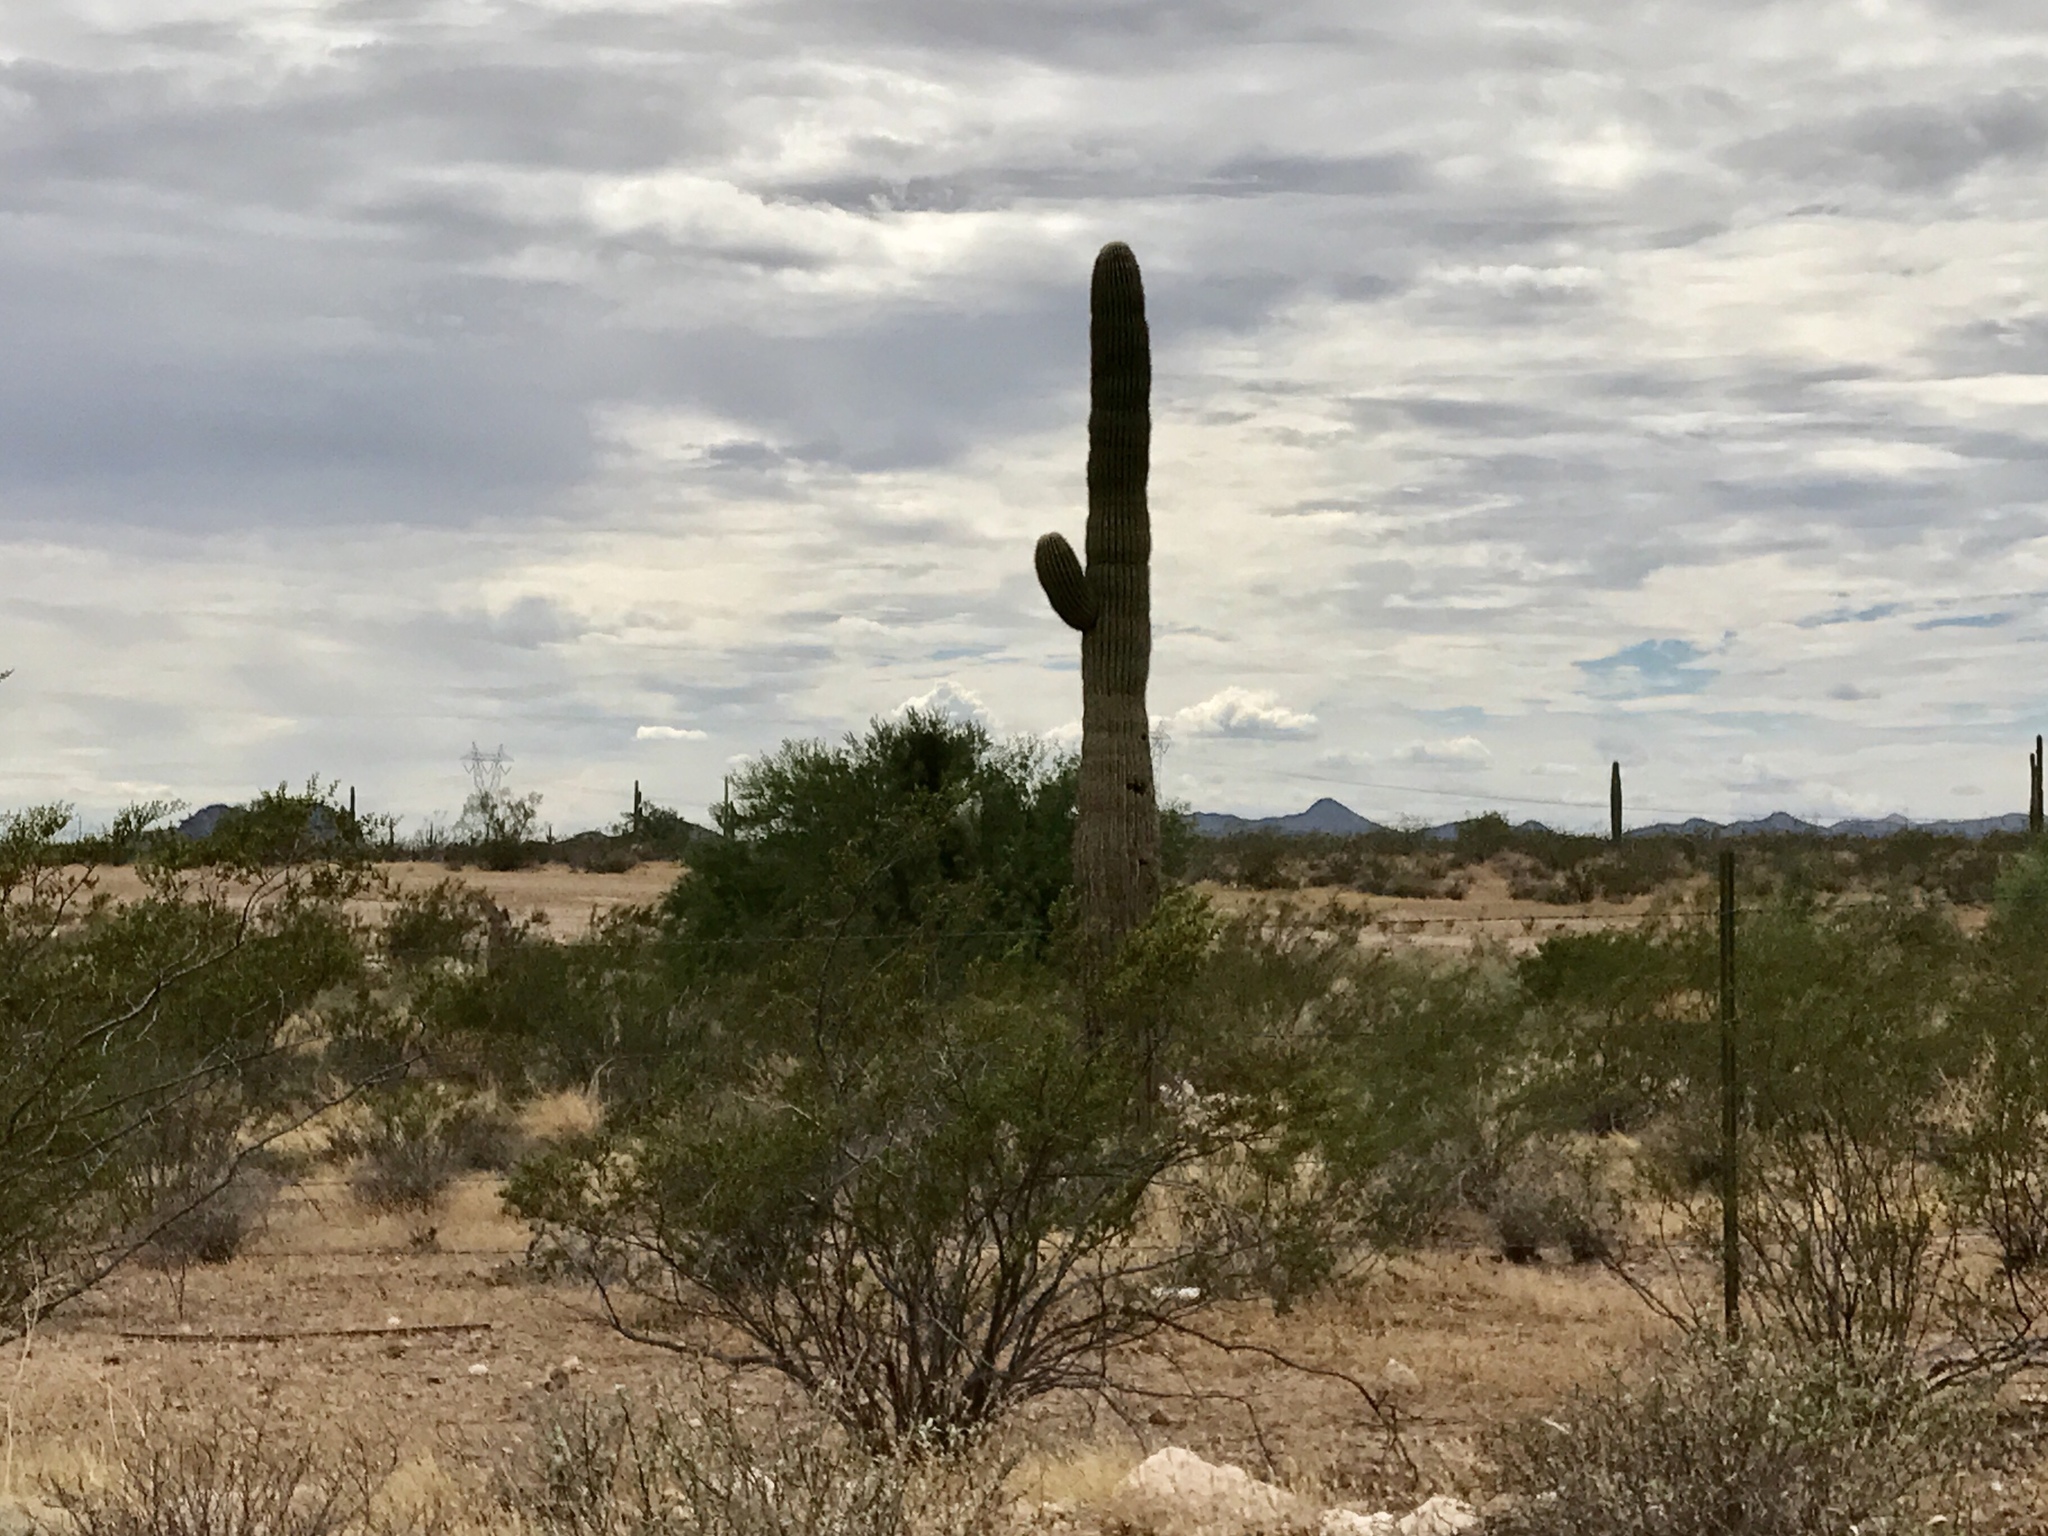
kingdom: Plantae
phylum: Tracheophyta
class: Magnoliopsida
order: Caryophyllales
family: Cactaceae
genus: Carnegiea
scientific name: Carnegiea gigantea
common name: Saguaro
